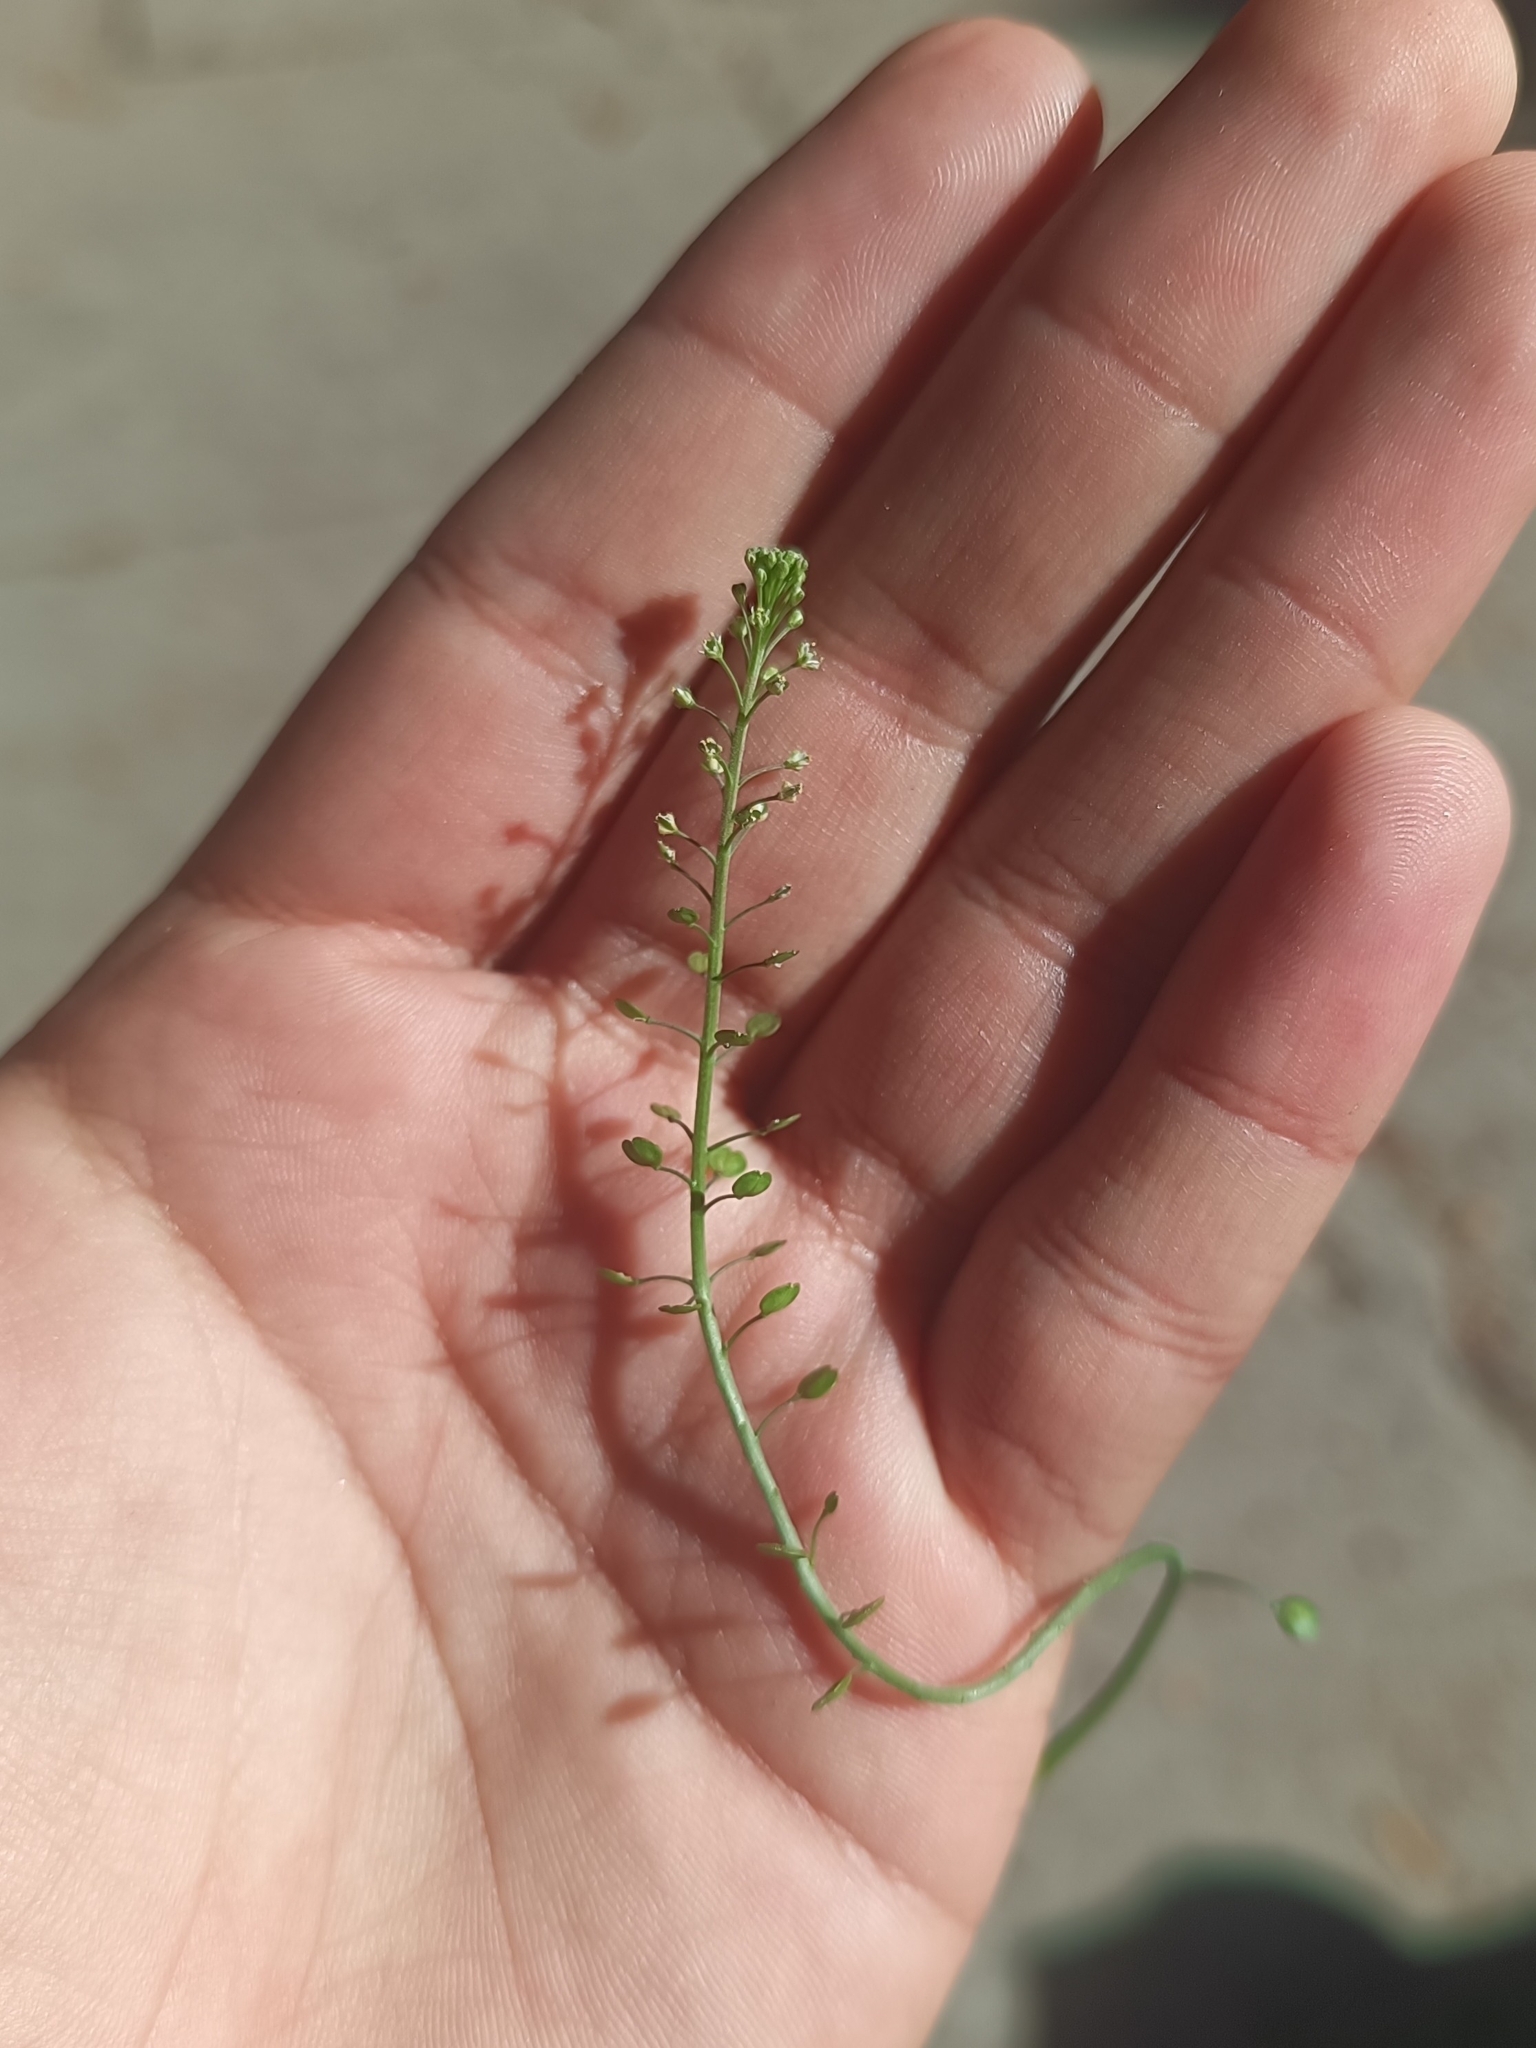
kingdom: Plantae
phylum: Tracheophyta
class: Magnoliopsida
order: Brassicales
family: Brassicaceae
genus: Lepidium
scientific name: Lepidium virginicum
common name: Least pepperwort
